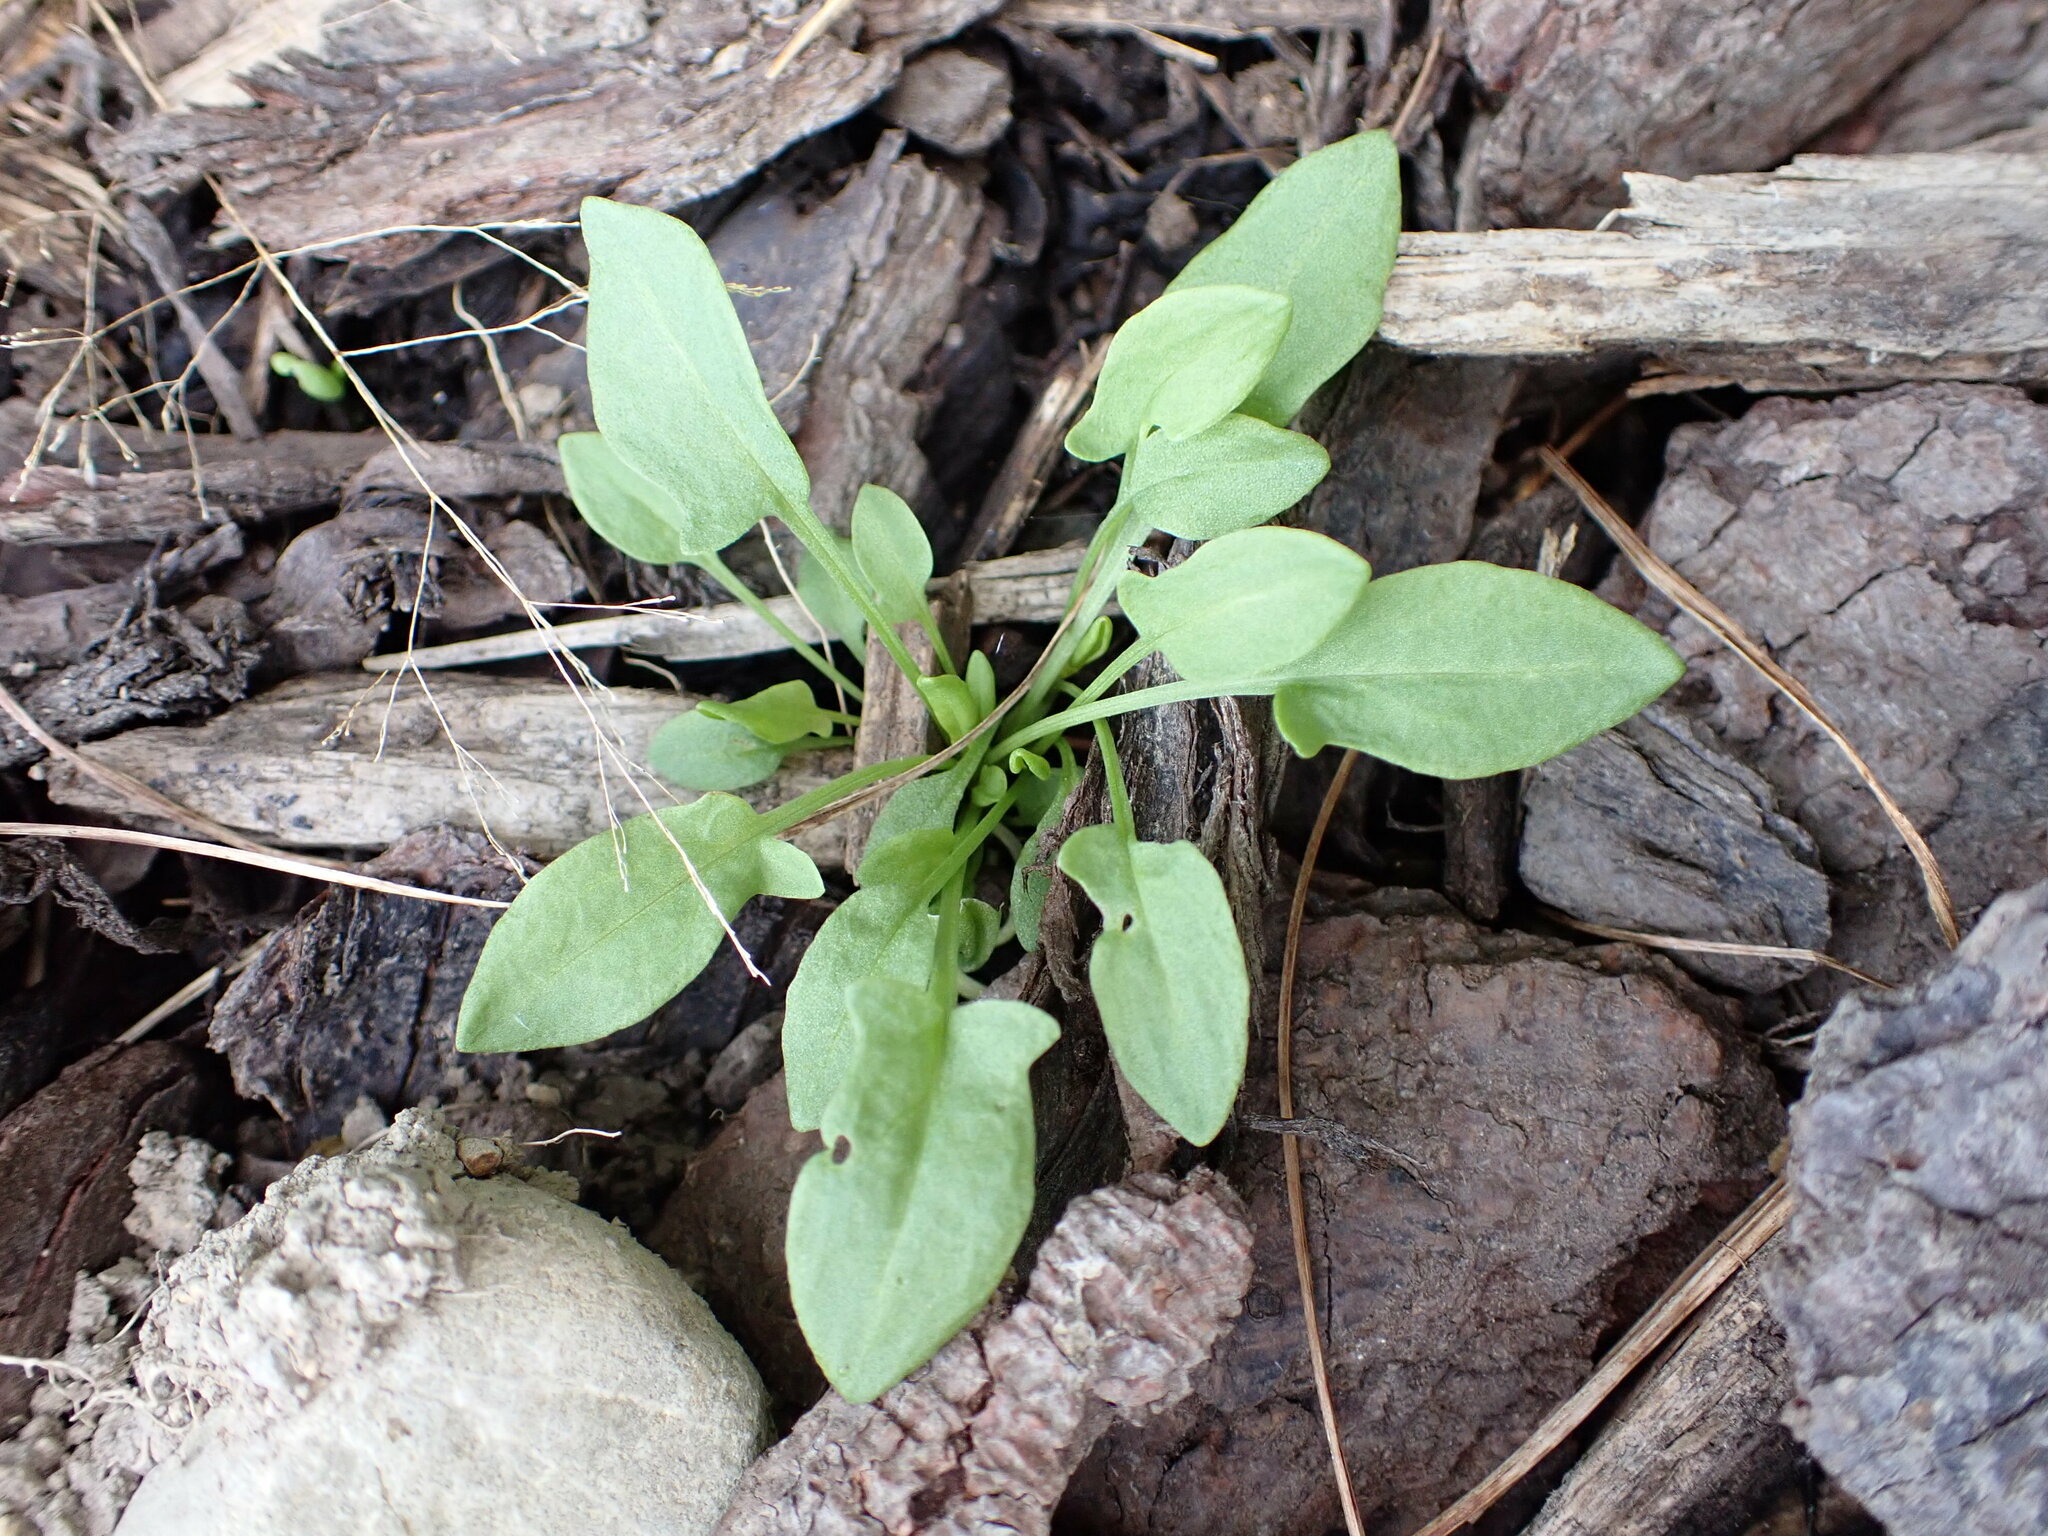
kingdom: Plantae
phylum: Tracheophyta
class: Magnoliopsida
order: Caryophyllales
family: Polygonaceae
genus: Rumex
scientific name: Rumex acetosella
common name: Common sheep sorrel
